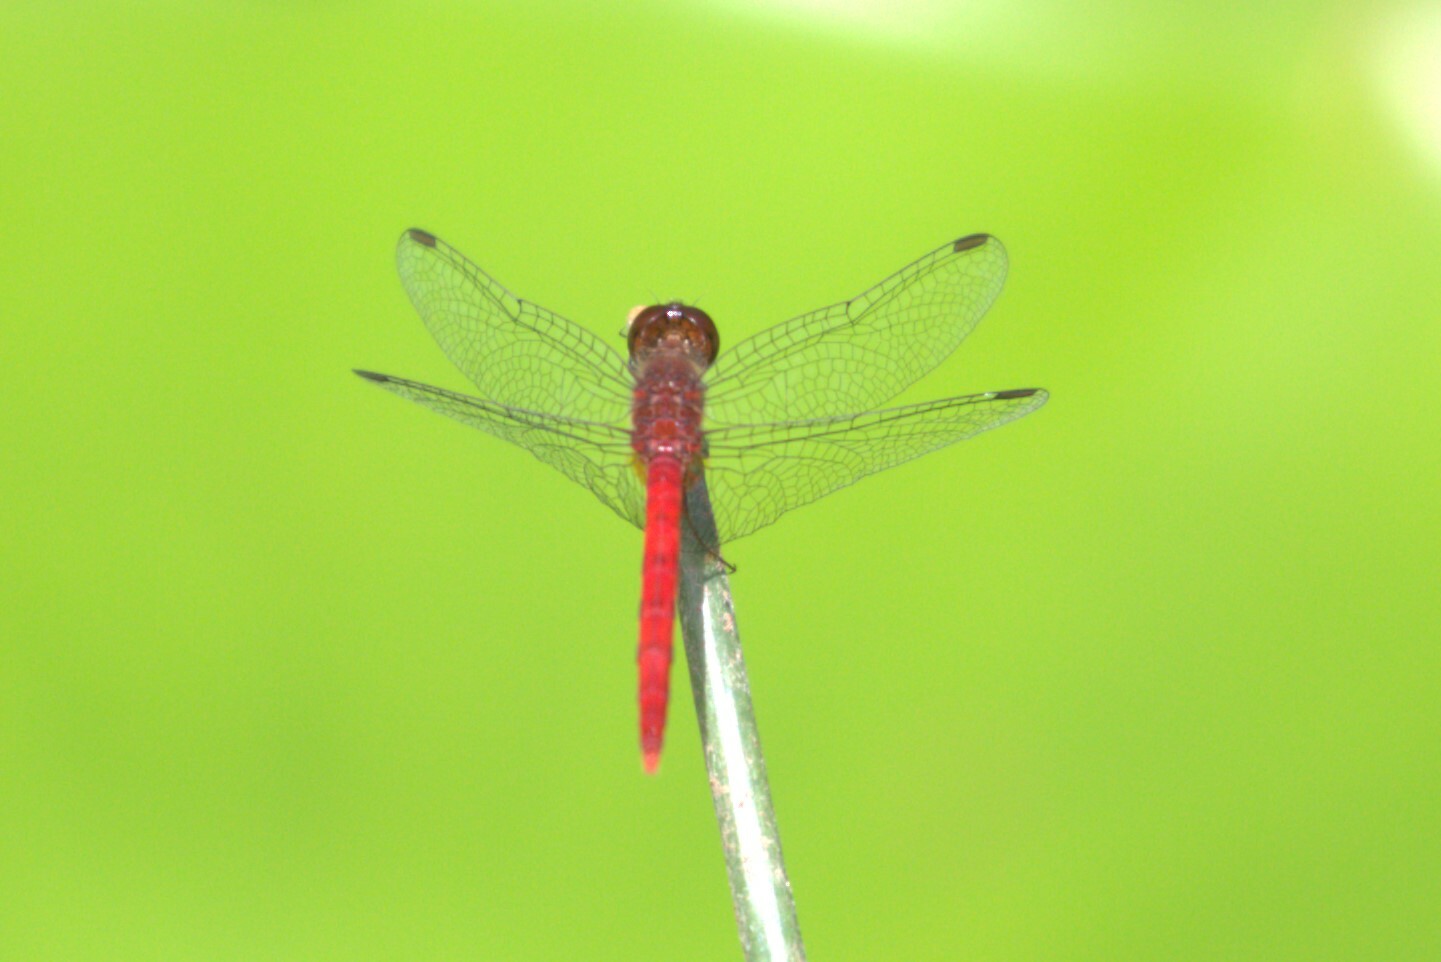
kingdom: Animalia
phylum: Arthropoda
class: Insecta
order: Odonata
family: Libellulidae
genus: Nannodiplax
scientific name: Nannodiplax rubra
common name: Pygmy percher
